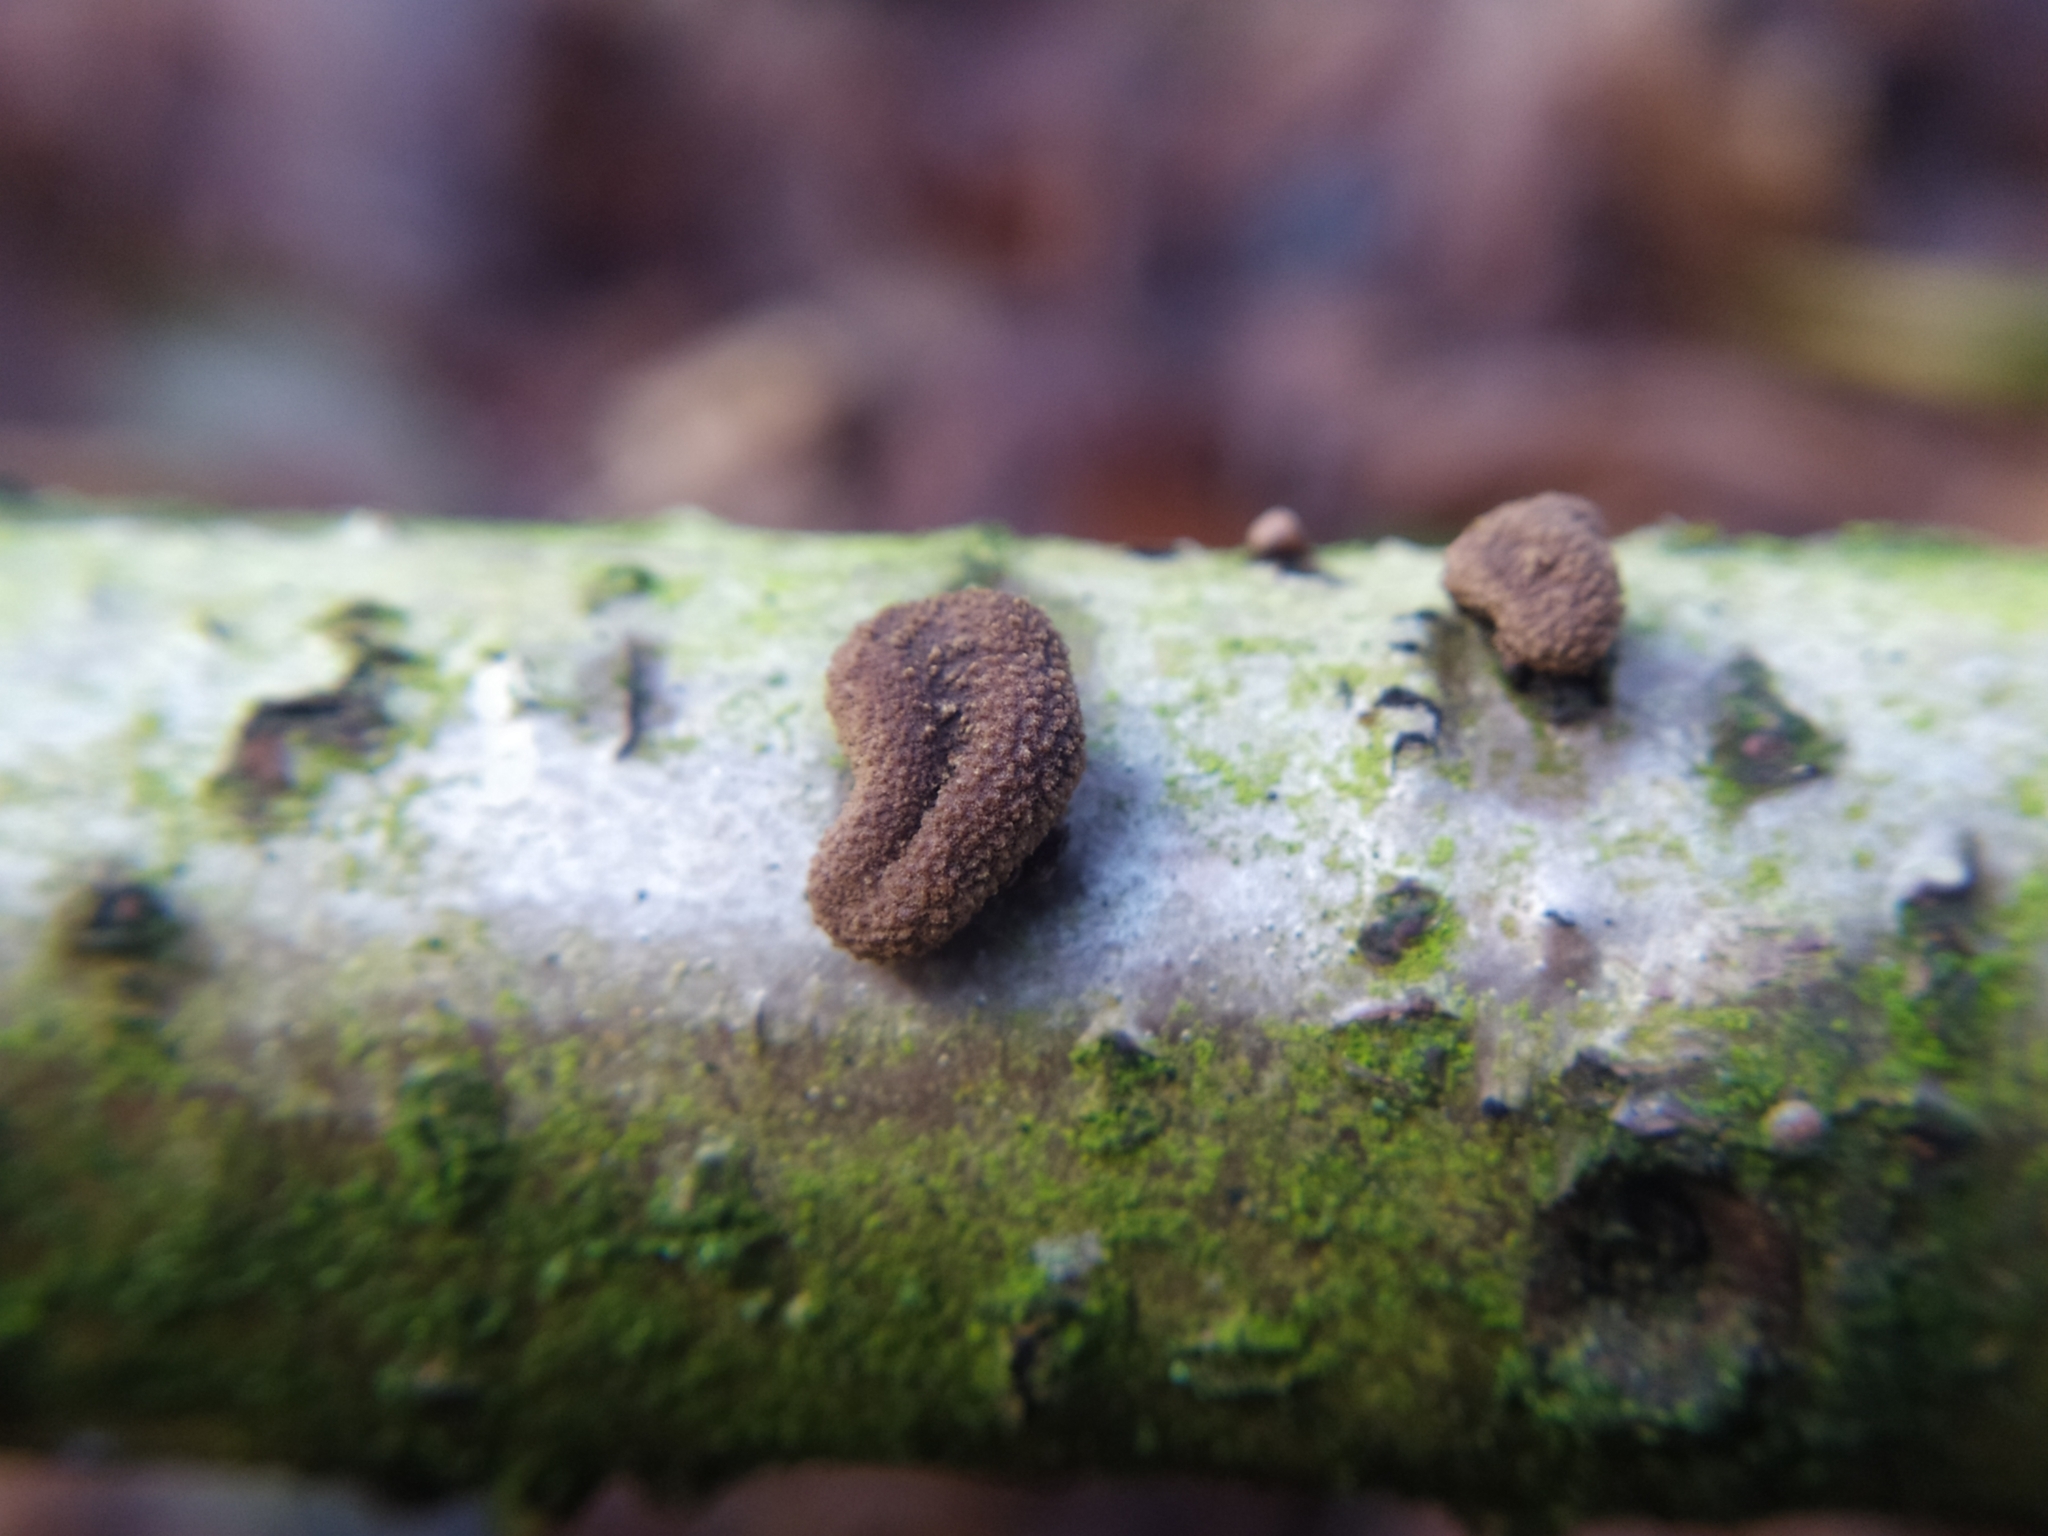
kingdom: Fungi
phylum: Ascomycota
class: Leotiomycetes
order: Helotiales
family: Cenangiaceae
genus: Encoelia
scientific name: Encoelia furfuracea
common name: Spring hazelcup
